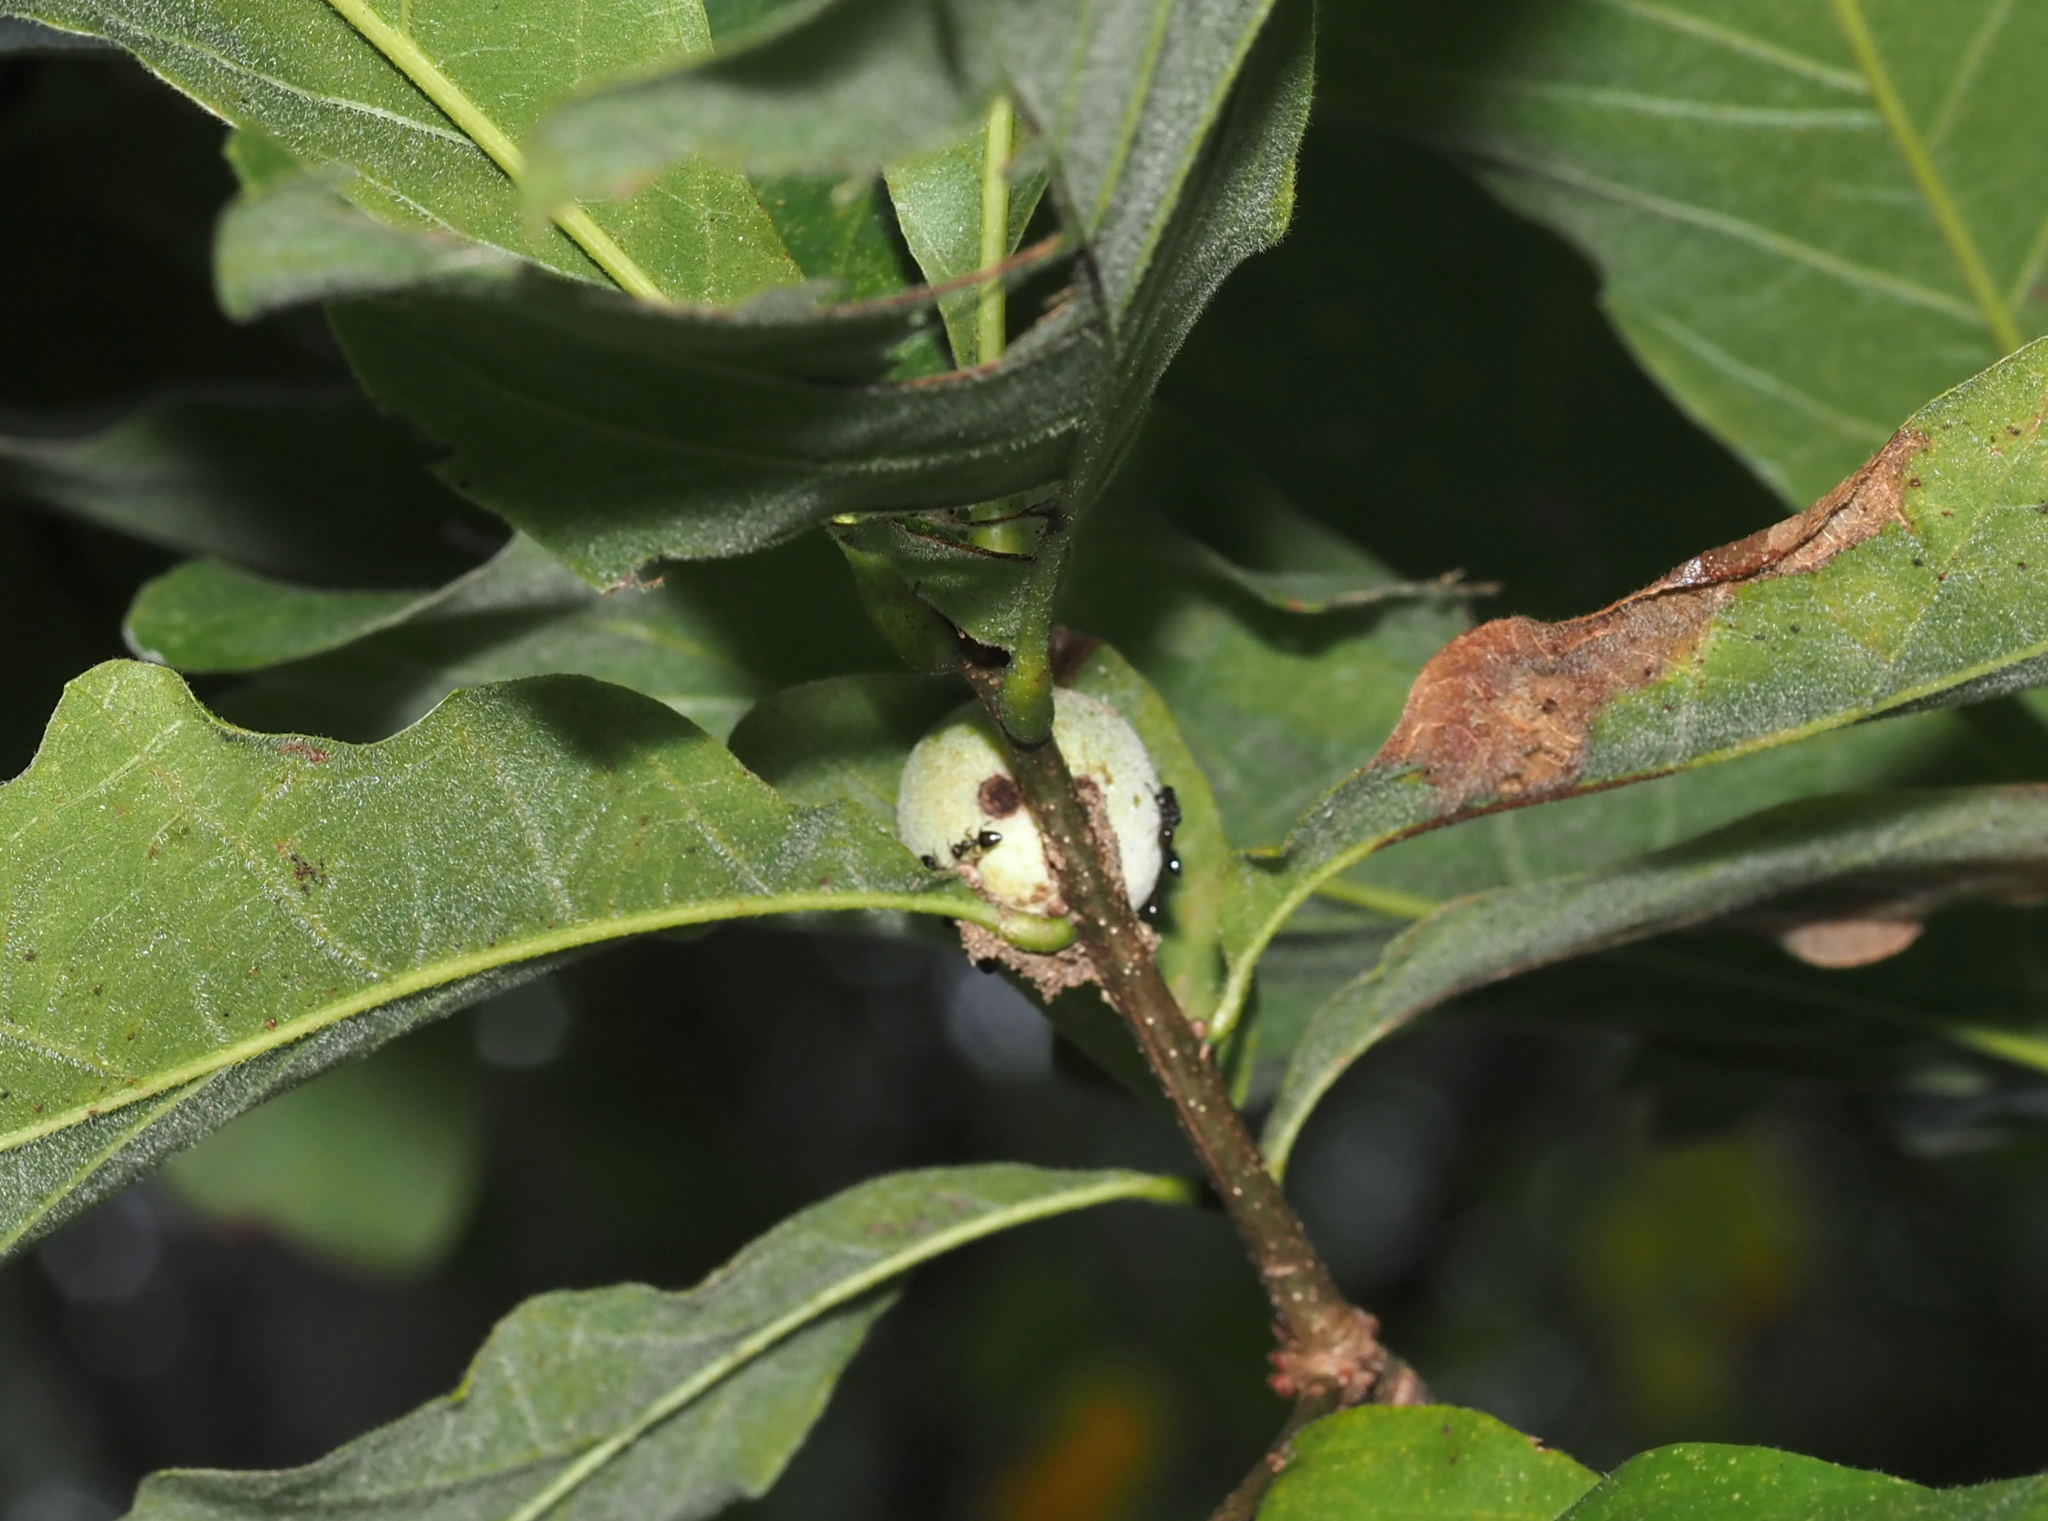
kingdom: Animalia
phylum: Arthropoda
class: Insecta
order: Hymenoptera
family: Cynipidae
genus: Disholcaspis
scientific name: Disholcaspis
